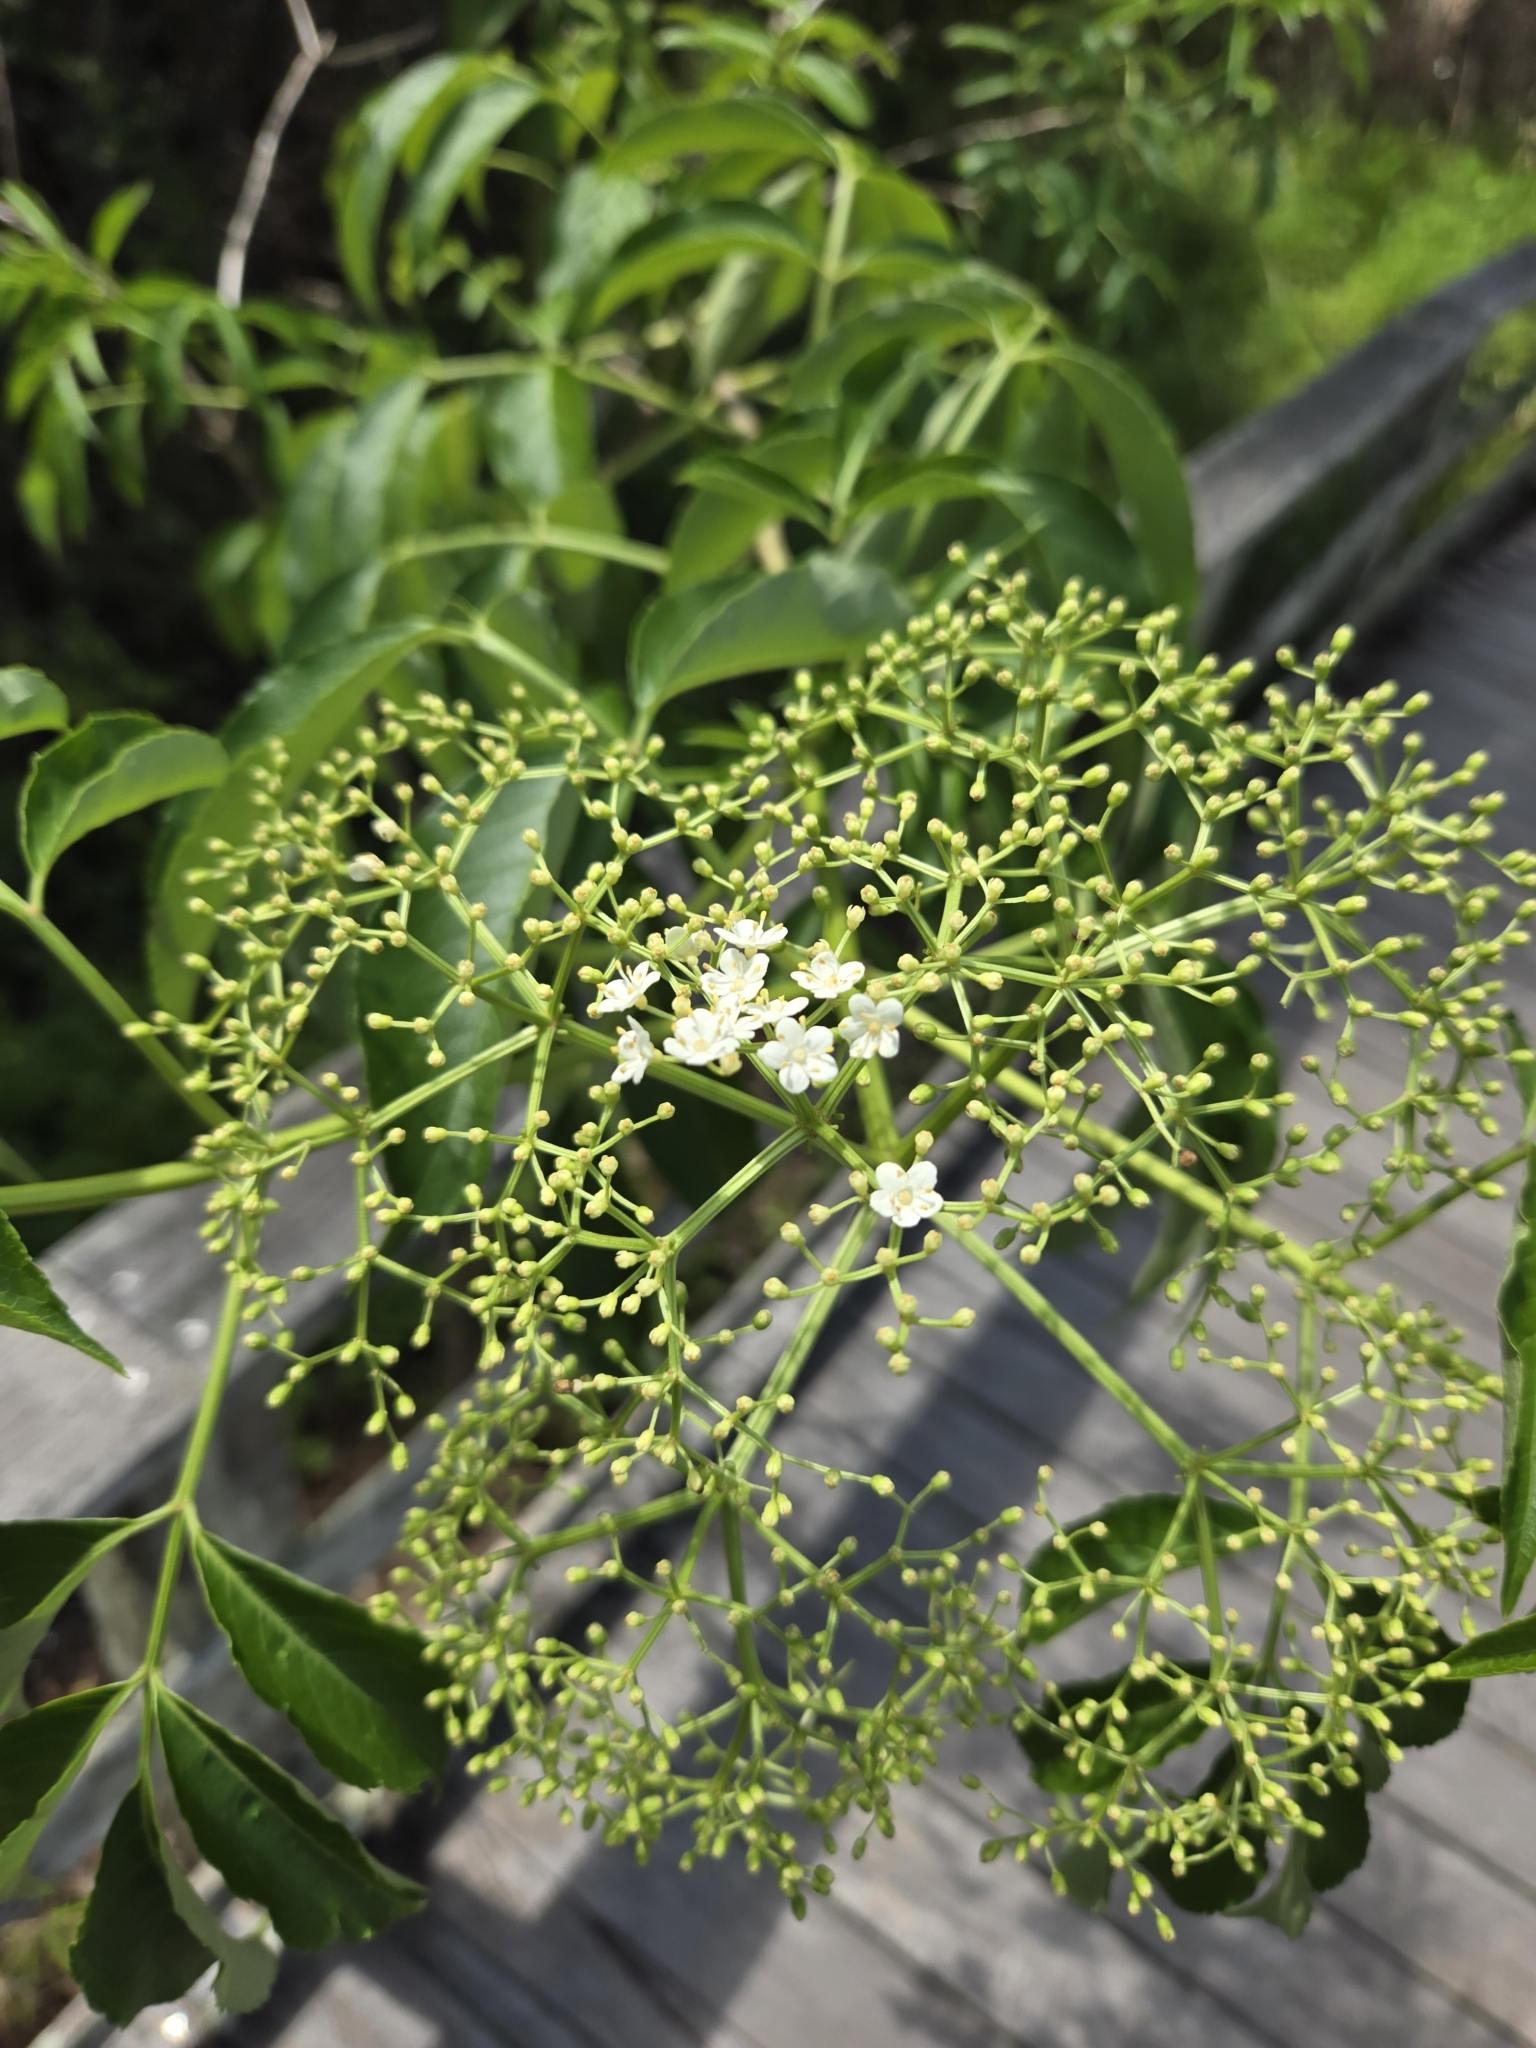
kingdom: Plantae
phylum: Tracheophyta
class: Magnoliopsida
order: Dipsacales
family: Viburnaceae
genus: Sambucus
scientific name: Sambucus canadensis
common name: American elder
